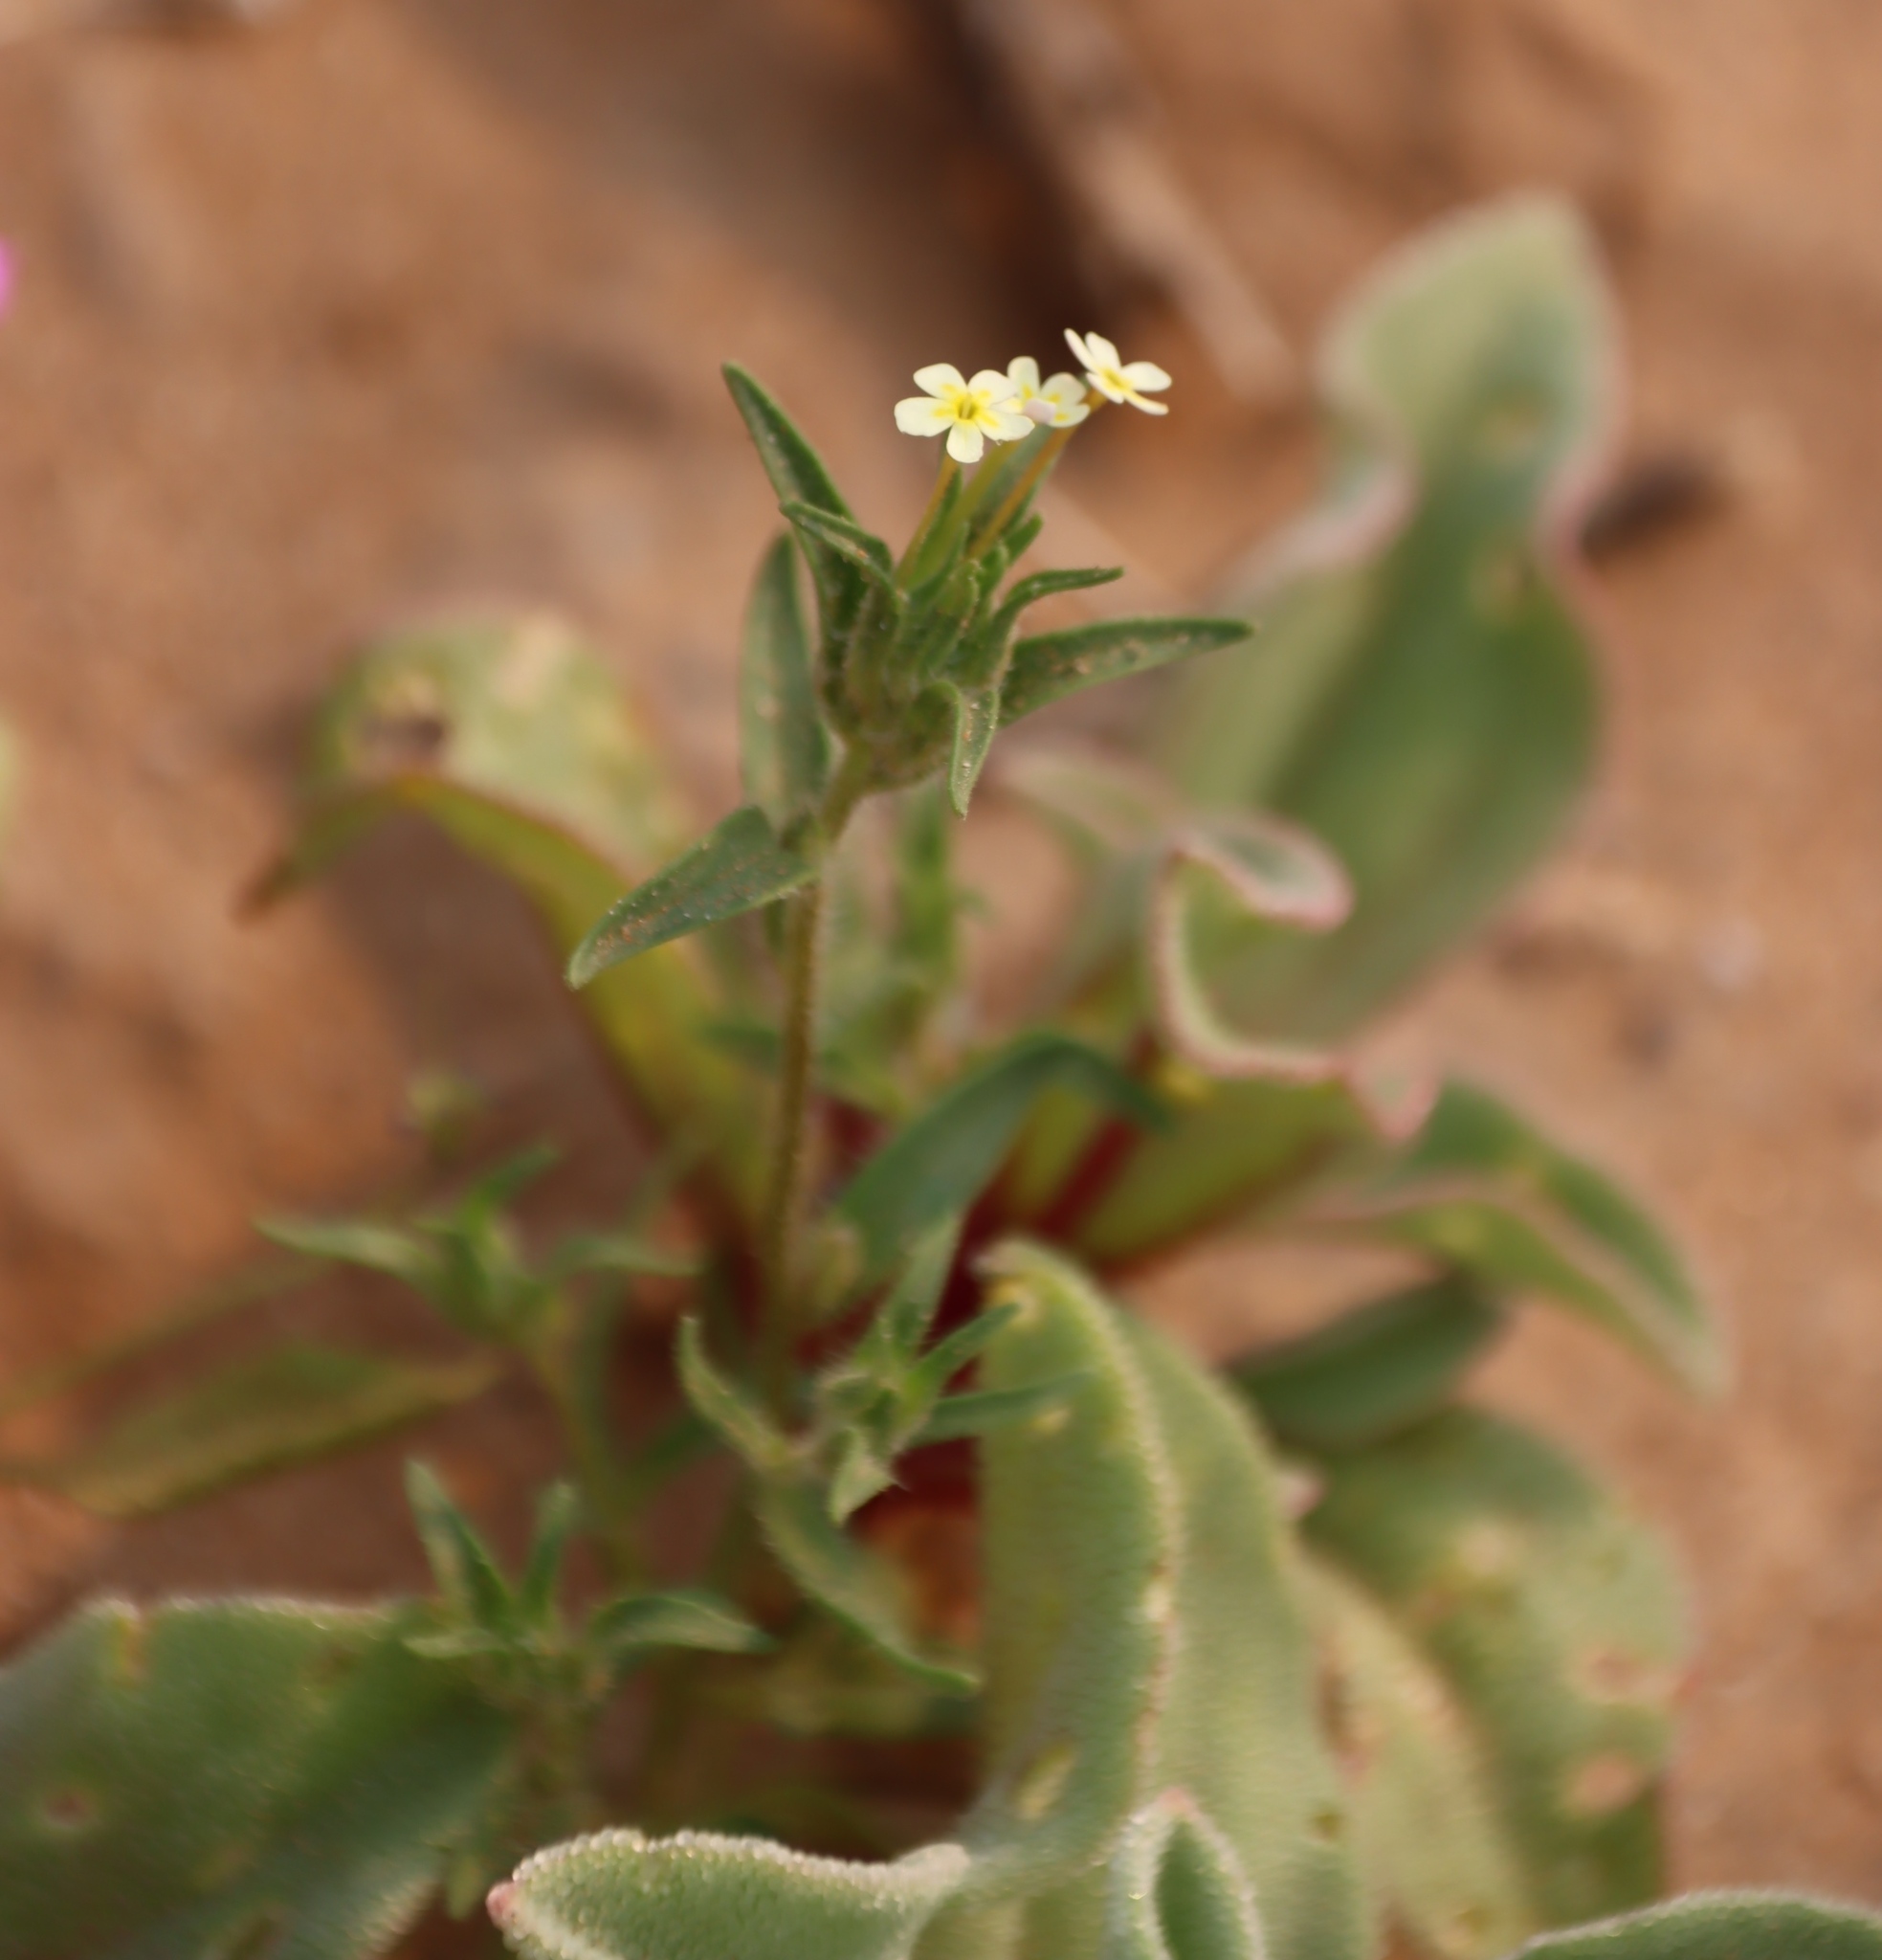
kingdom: Plantae
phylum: Tracheophyta
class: Magnoliopsida
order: Lamiales
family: Scrophulariaceae
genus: Zaluzianskya
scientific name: Zaluzianskya benthamiana
